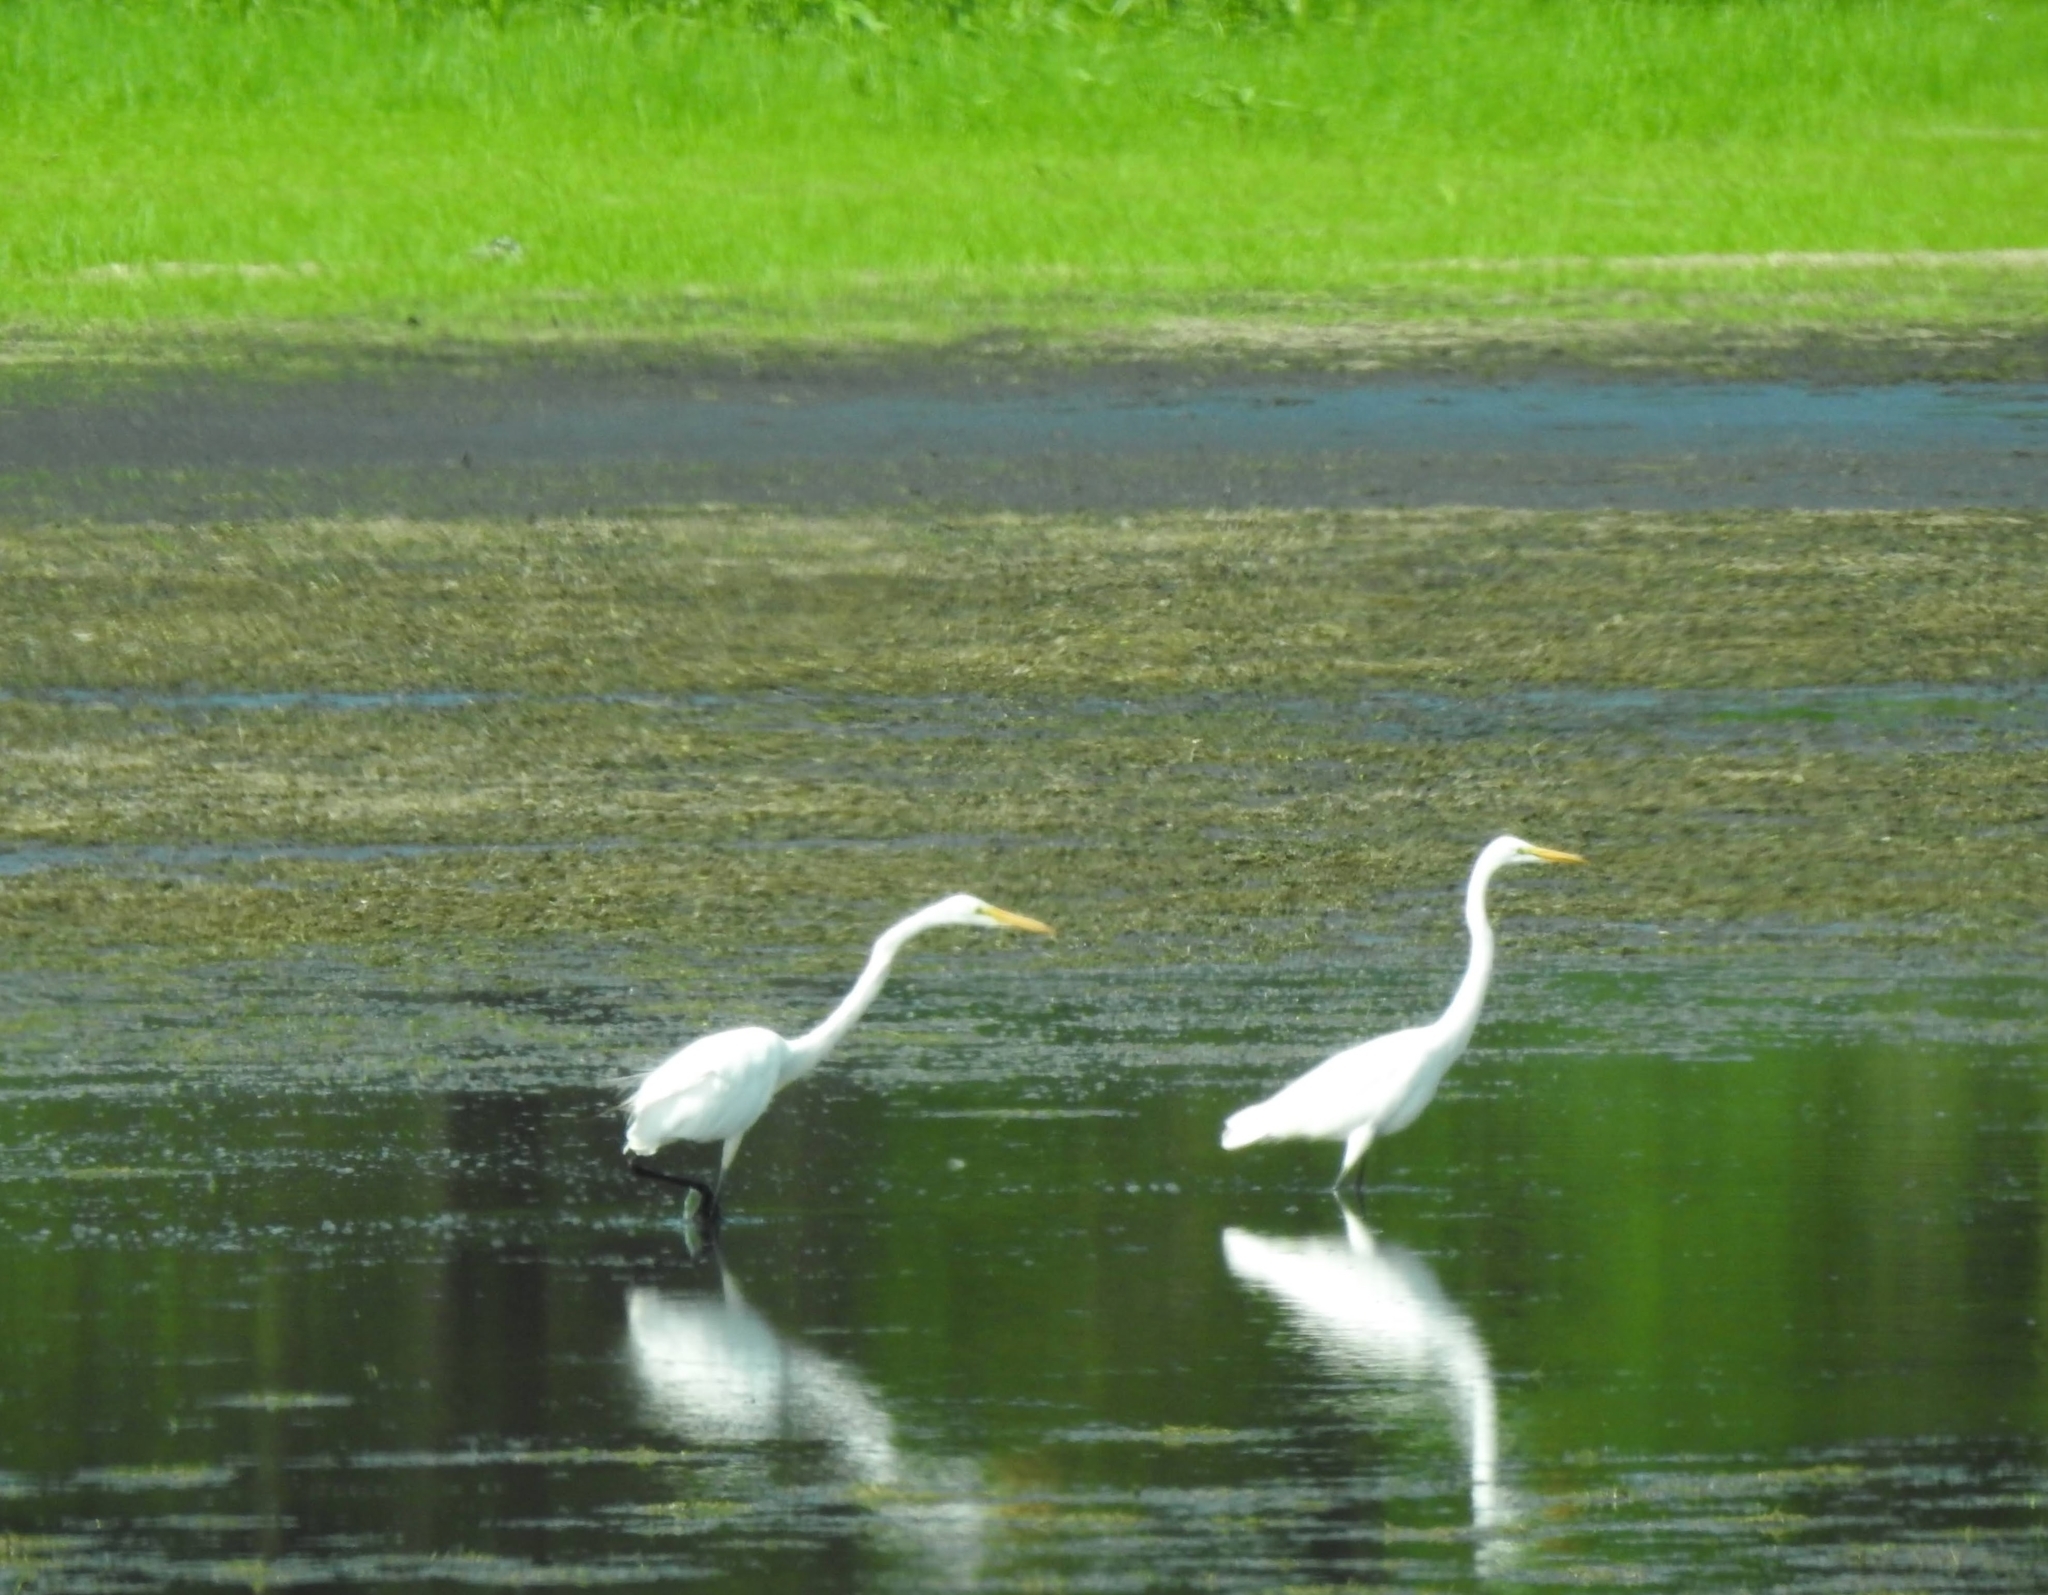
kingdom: Animalia
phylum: Chordata
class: Aves
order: Pelecaniformes
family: Ardeidae
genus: Ardea
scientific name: Ardea alba
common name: Great egret
